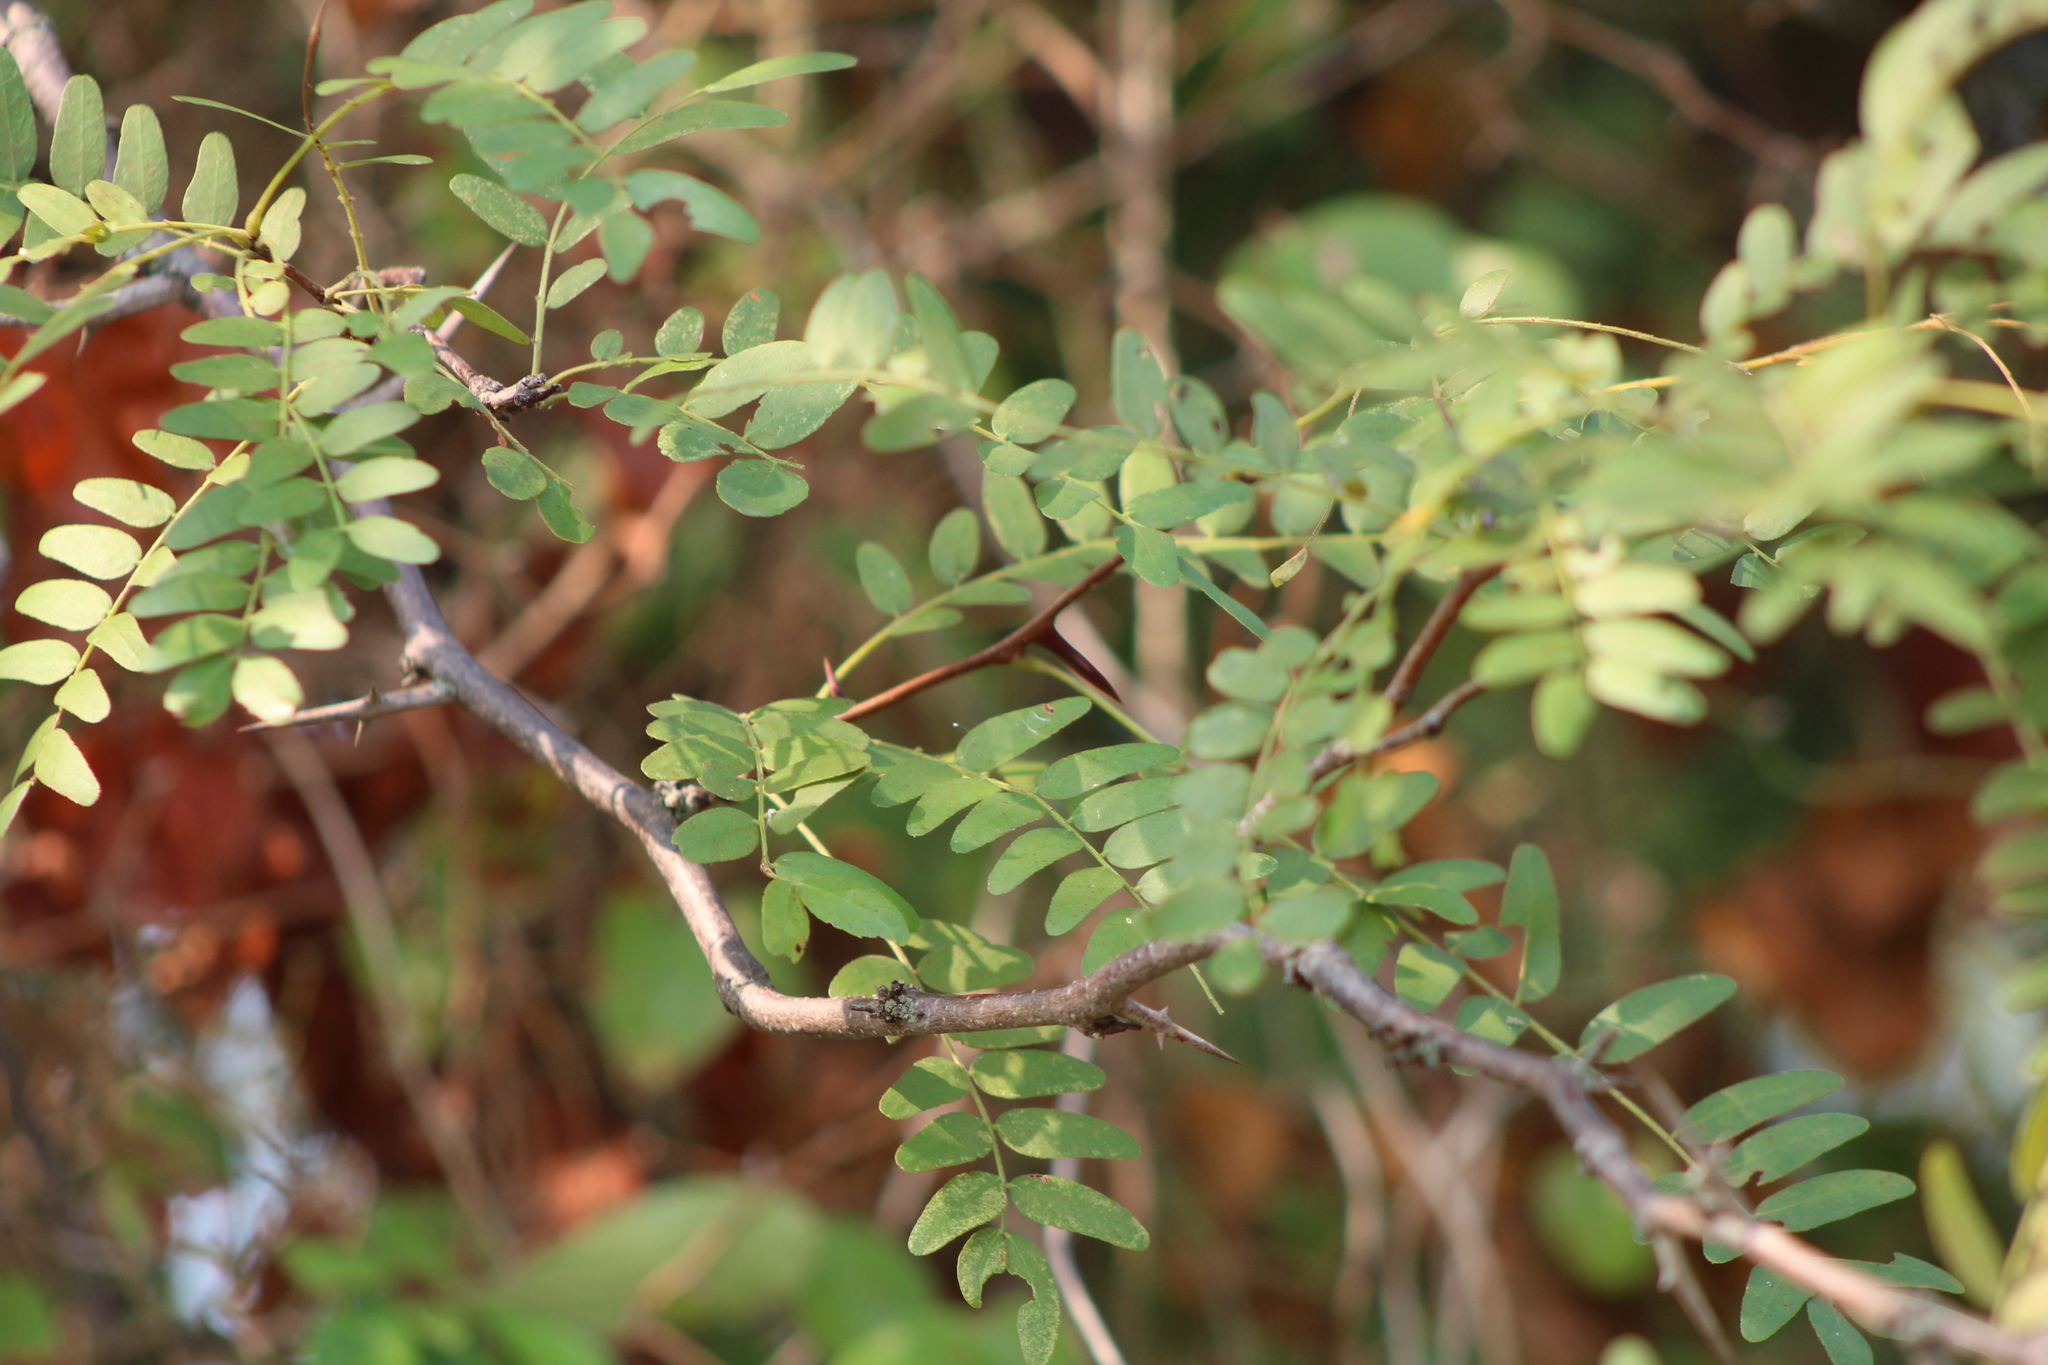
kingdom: Plantae
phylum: Tracheophyta
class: Magnoliopsida
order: Fabales
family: Fabaceae
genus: Gleditsia
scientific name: Gleditsia triacanthos
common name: Common honeylocust
